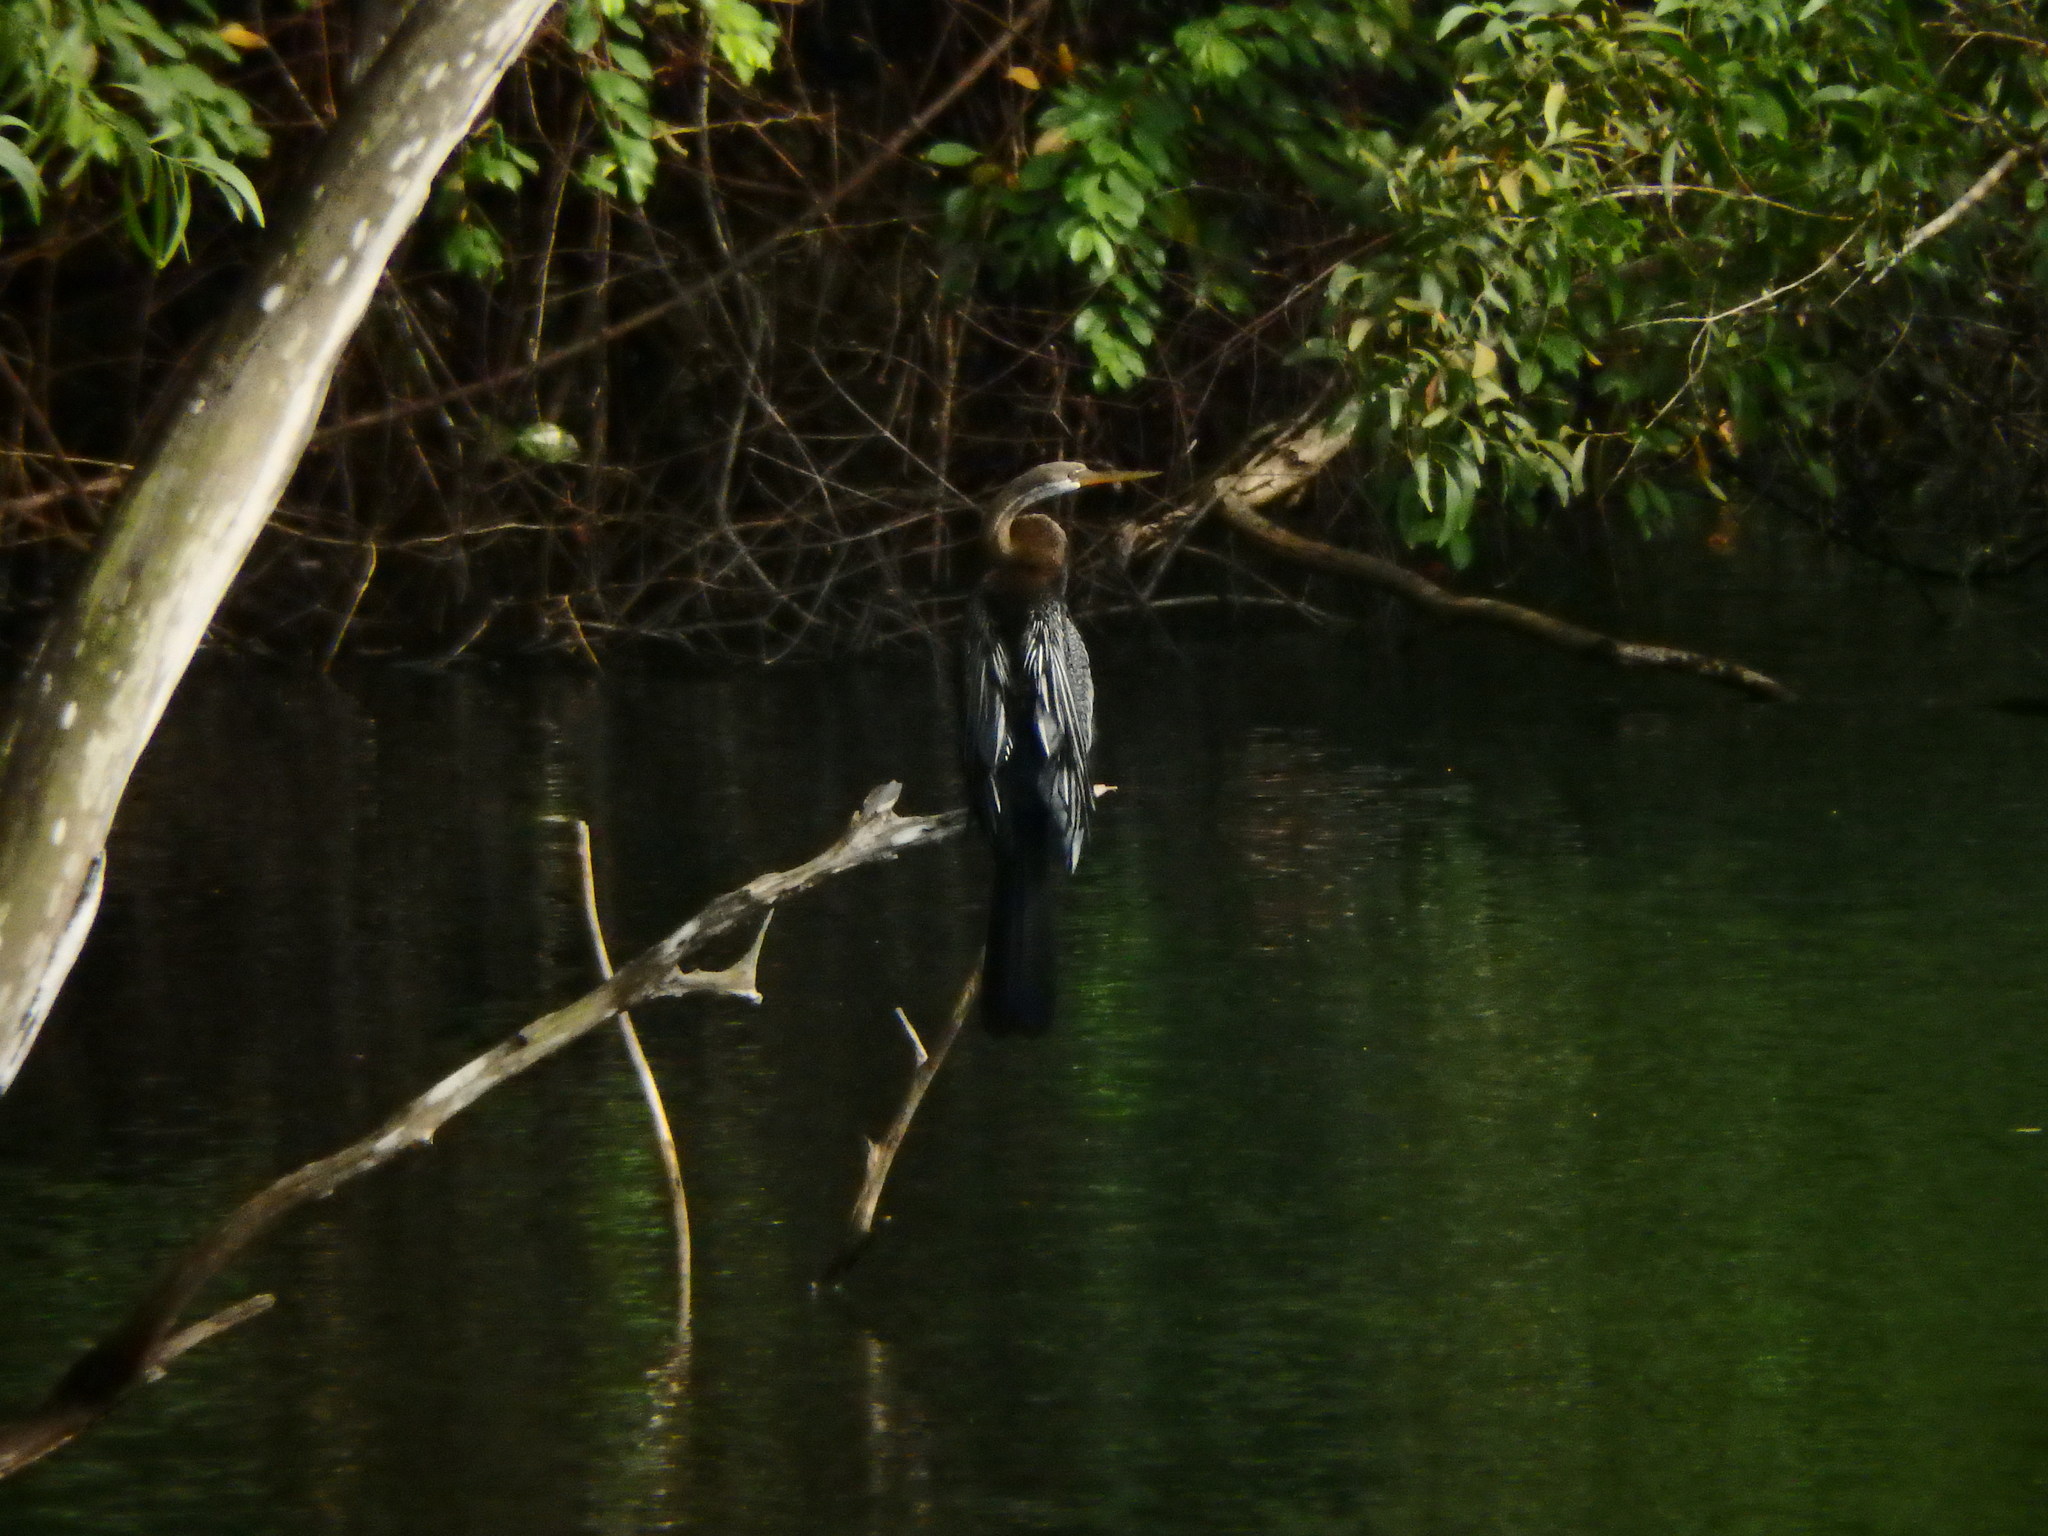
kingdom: Animalia
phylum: Chordata
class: Aves
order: Suliformes
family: Anhingidae
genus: Anhinga
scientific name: Anhinga melanogaster
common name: Oriental darter
